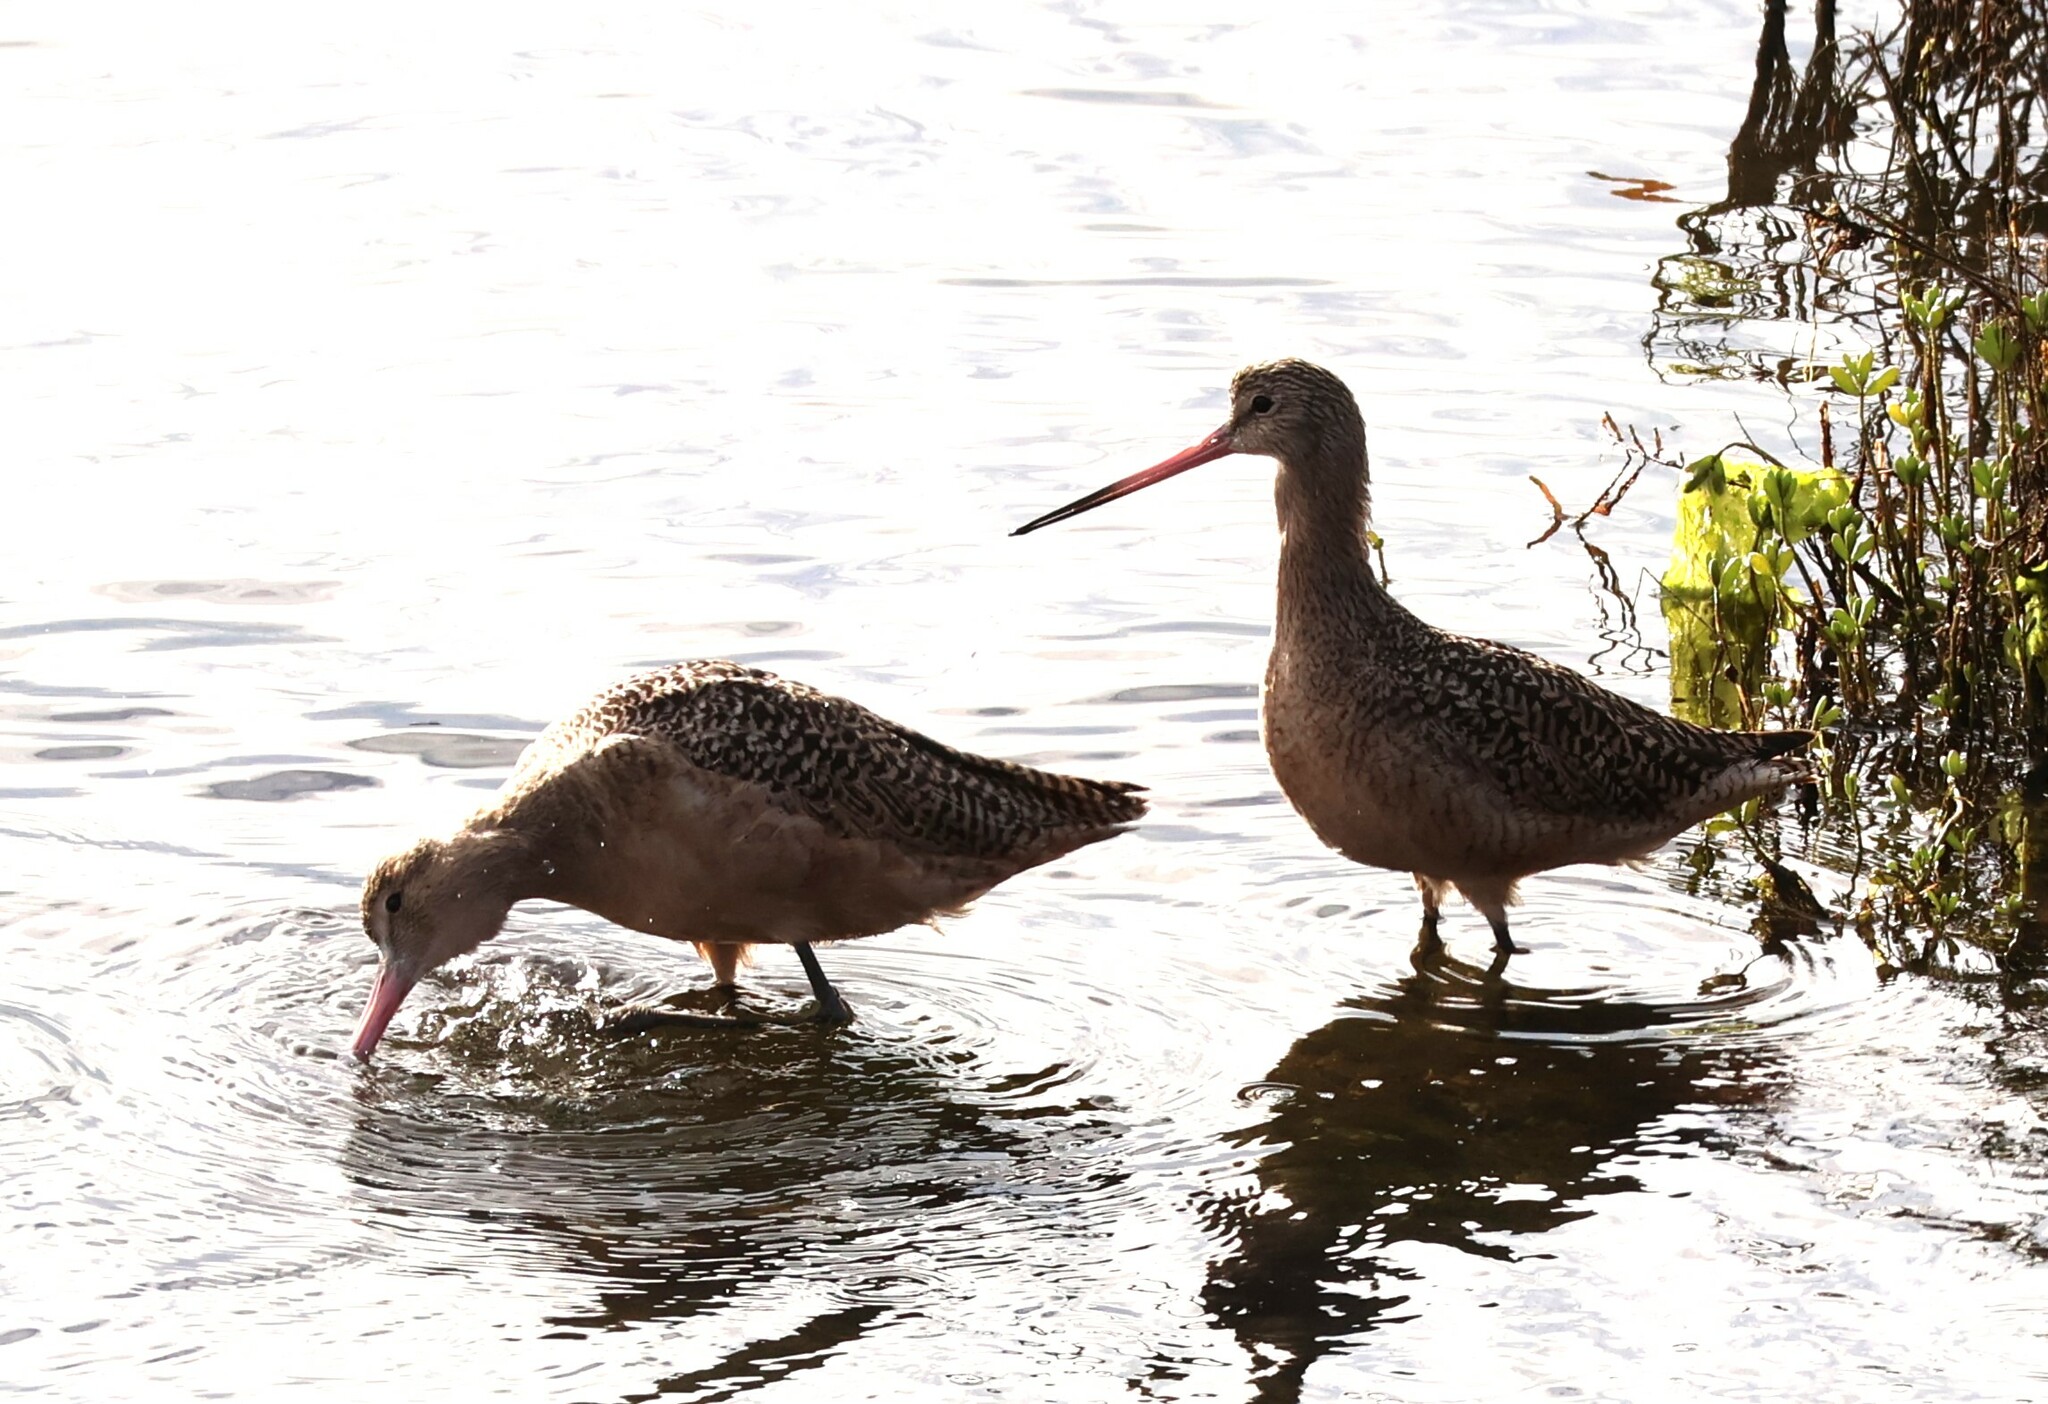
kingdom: Animalia
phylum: Chordata
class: Aves
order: Charadriiformes
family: Scolopacidae
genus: Limosa
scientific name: Limosa fedoa
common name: Marbled godwit
